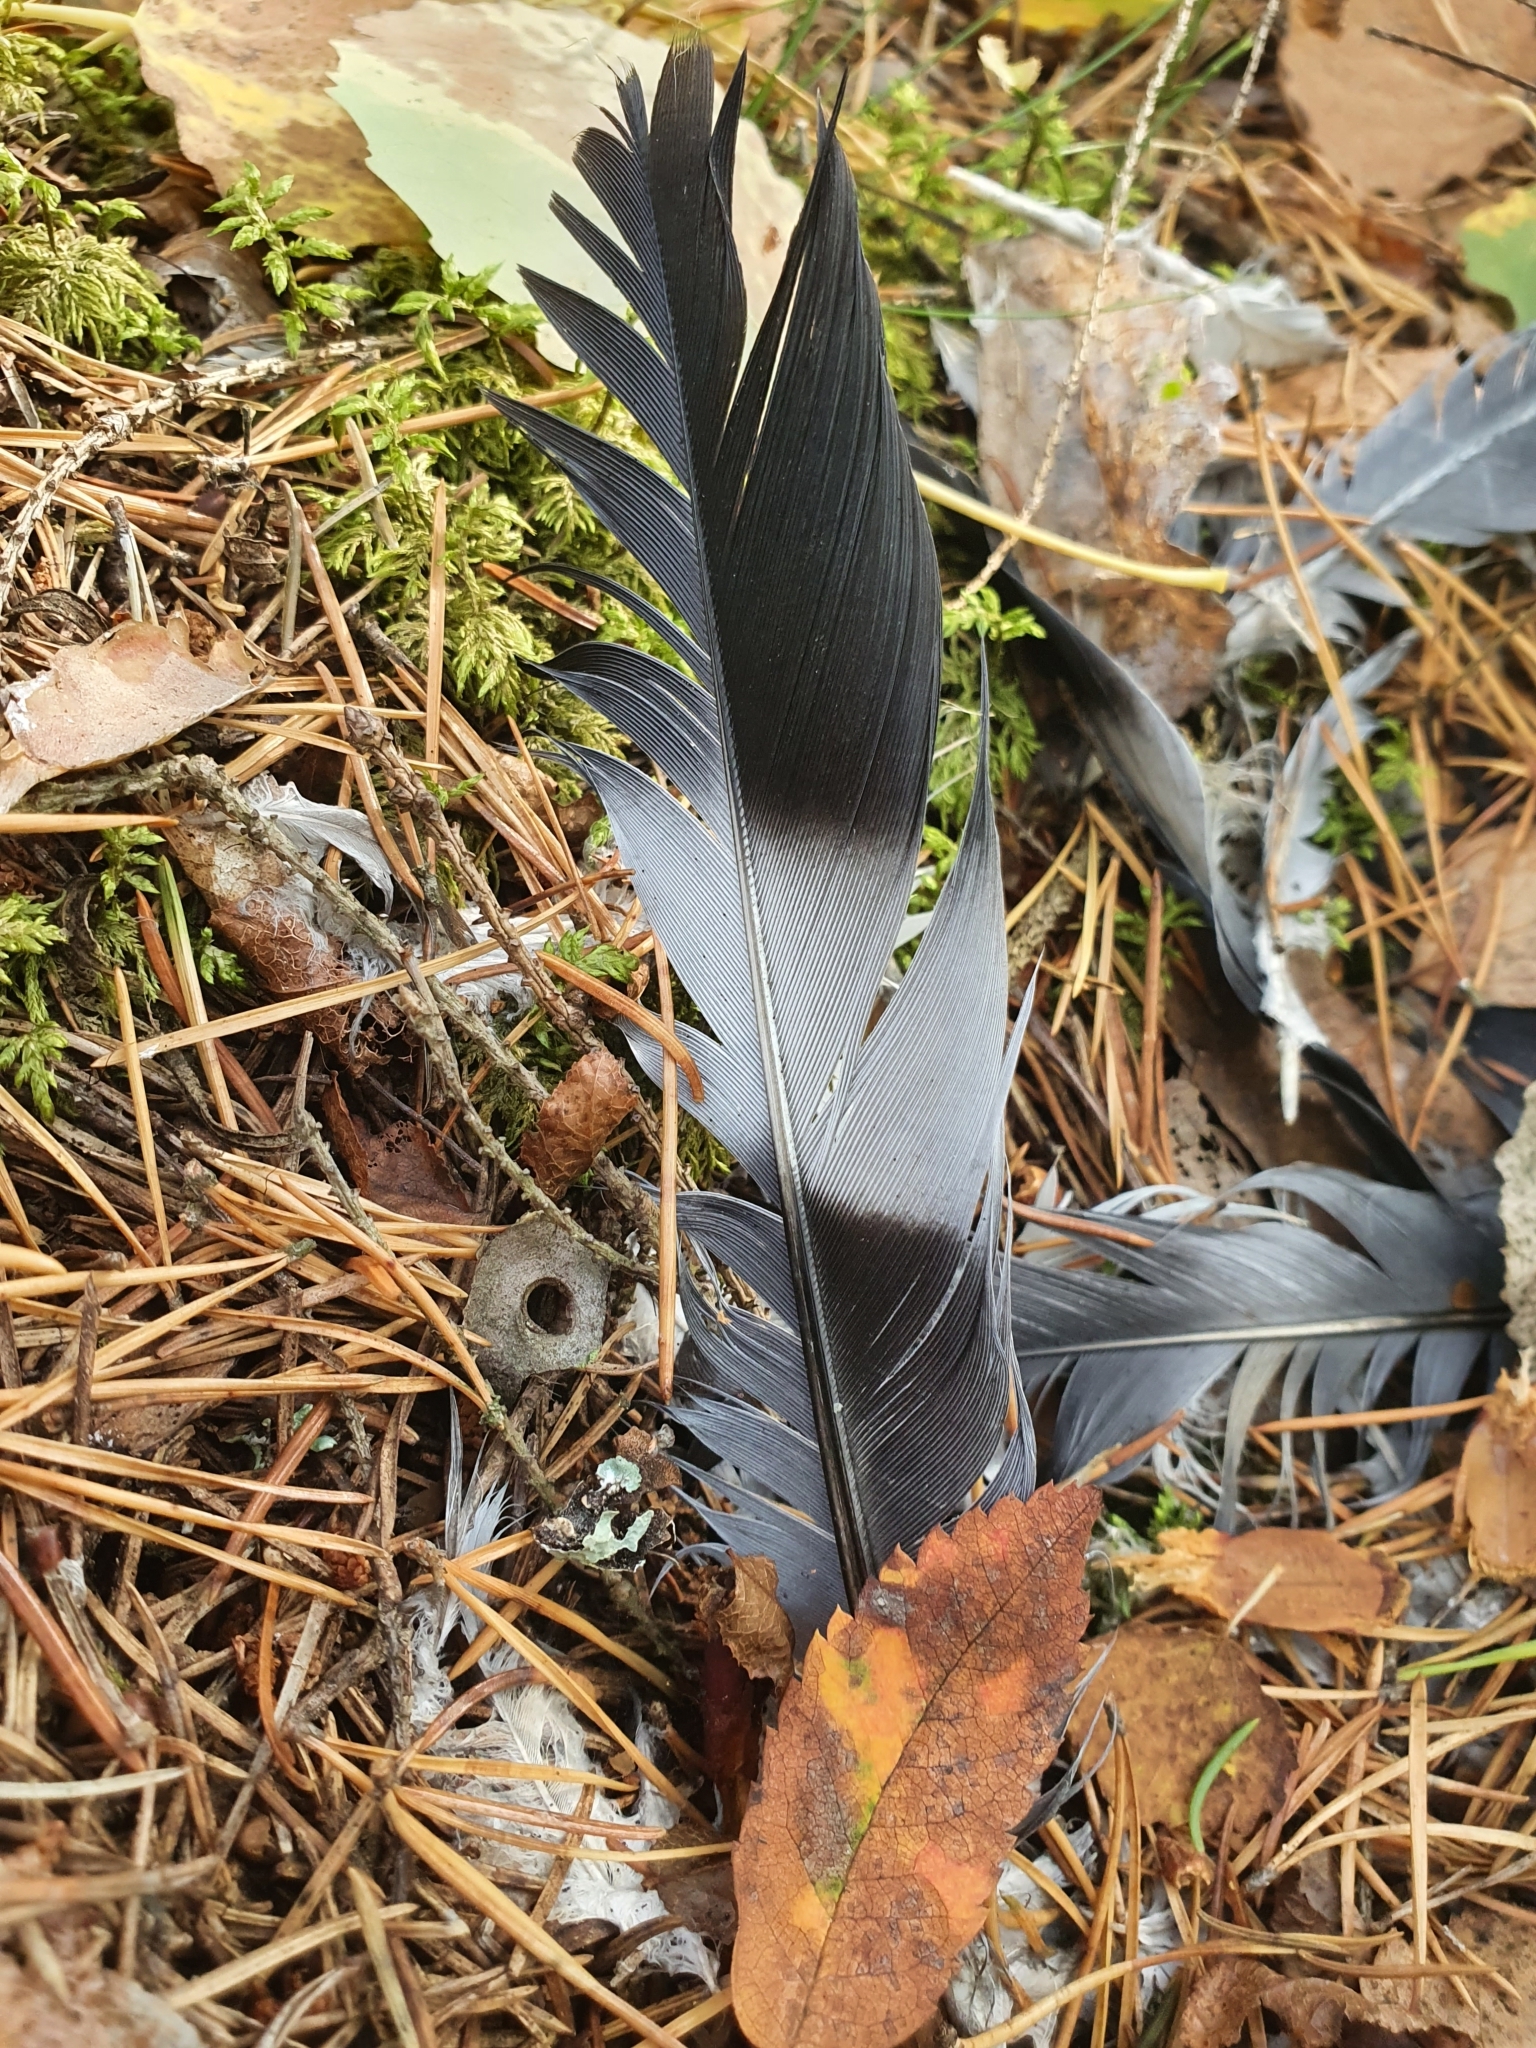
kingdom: Animalia
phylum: Chordata
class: Aves
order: Columbiformes
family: Columbidae
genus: Columba
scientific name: Columba palumbus
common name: Common wood pigeon
